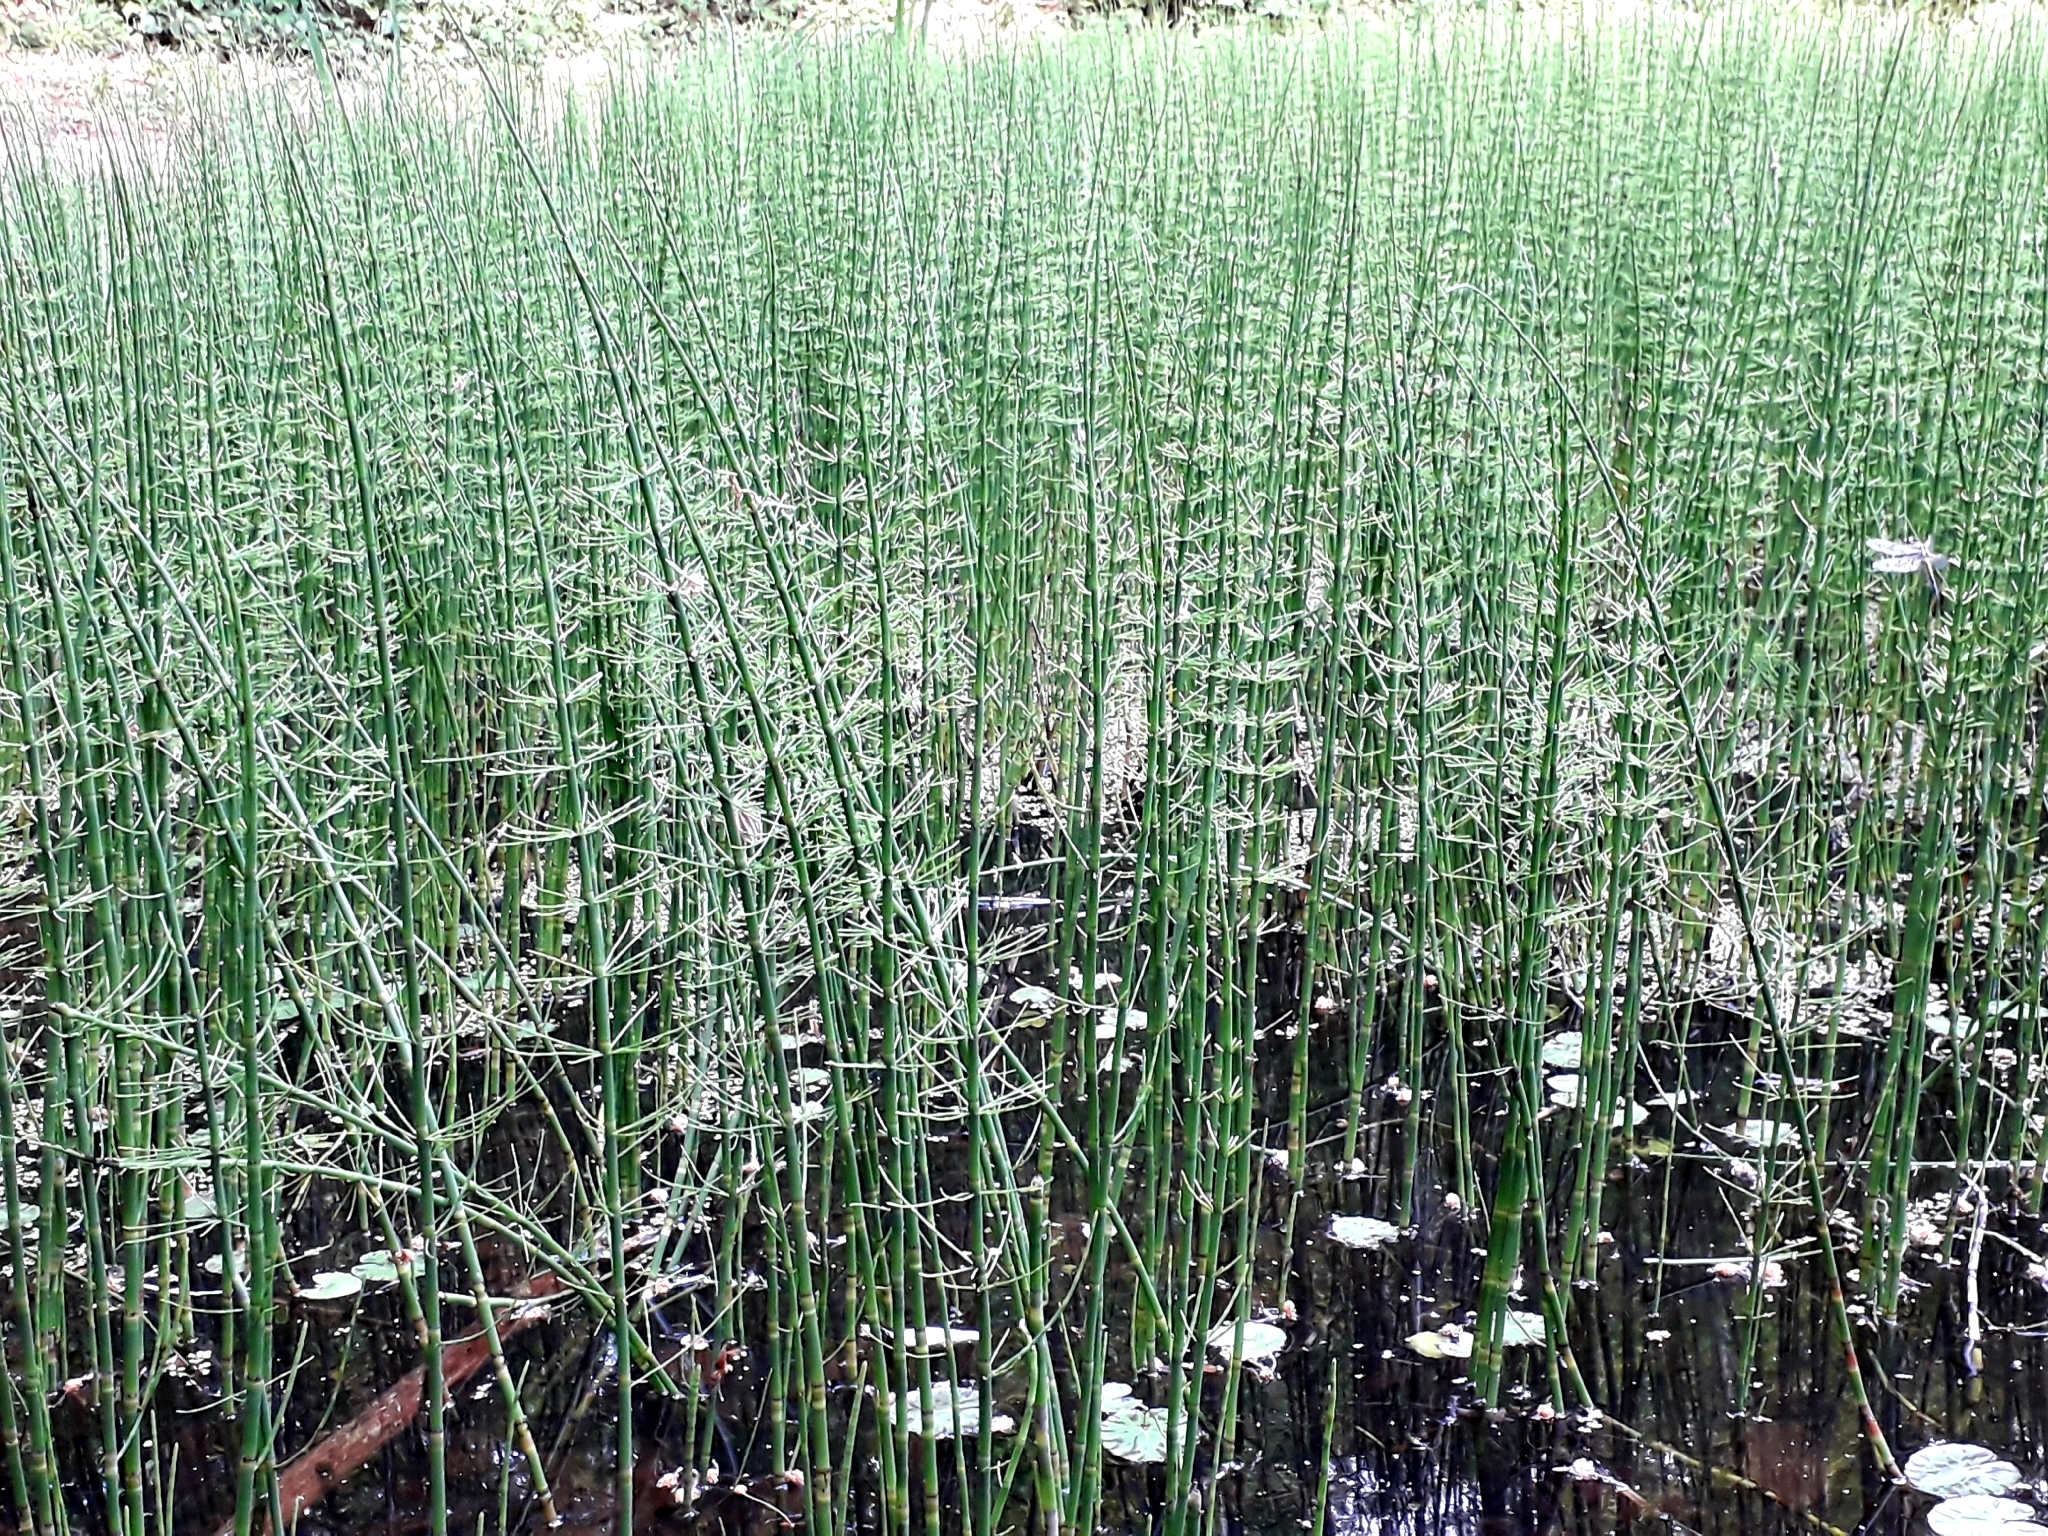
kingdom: Plantae
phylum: Tracheophyta
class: Polypodiopsida
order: Equisetales
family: Equisetaceae
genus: Equisetum
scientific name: Equisetum fluviatile
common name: Water horsetail
